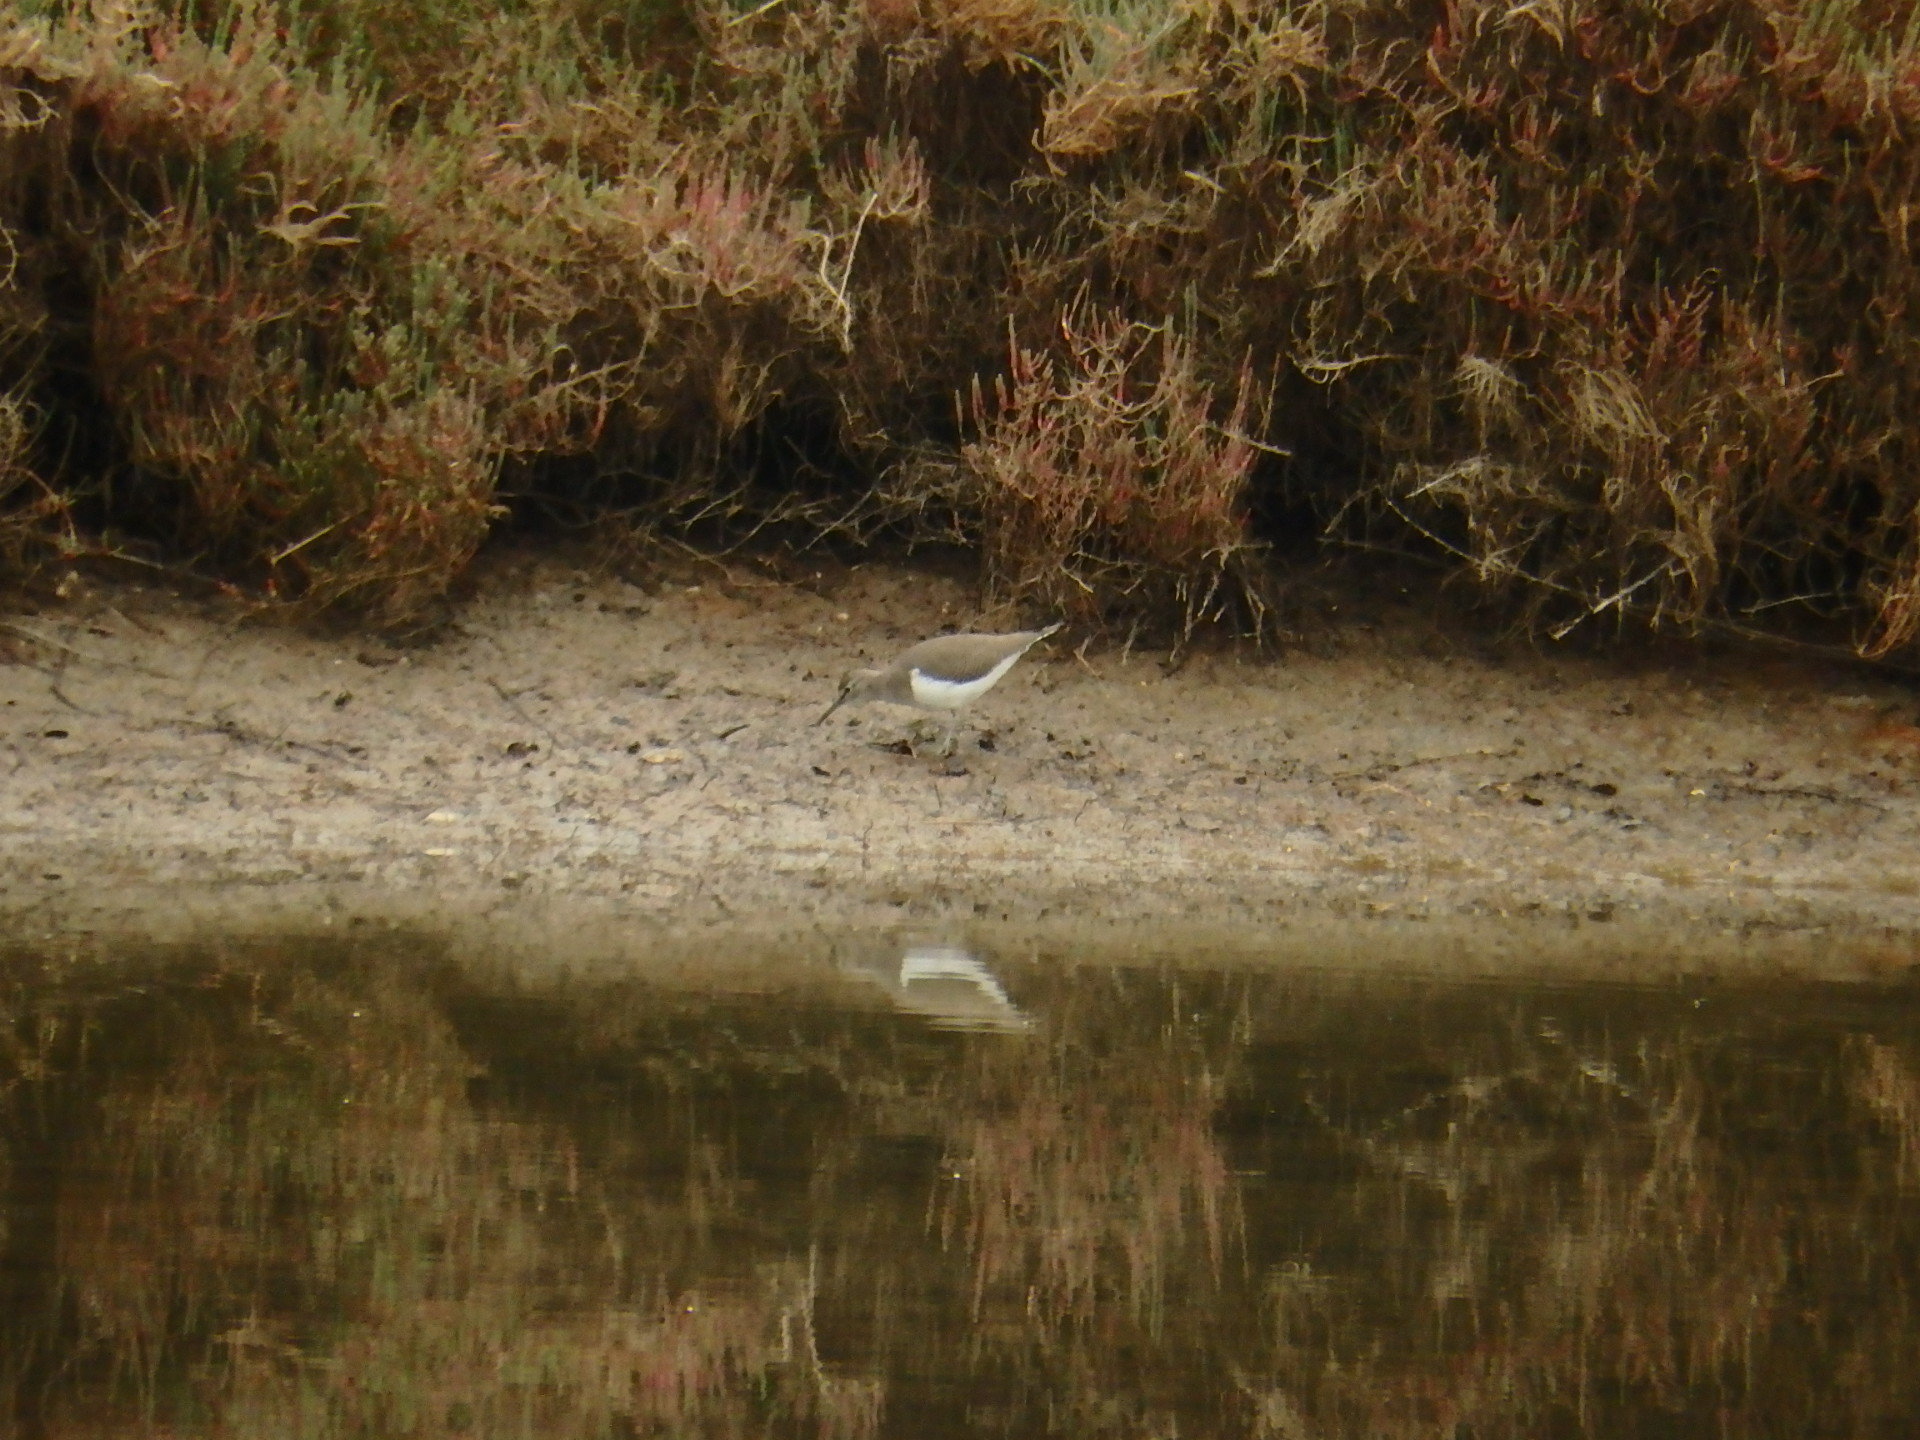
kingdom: Animalia
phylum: Chordata
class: Aves
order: Charadriiformes
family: Scolopacidae
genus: Actitis
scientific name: Actitis hypoleucos
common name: Common sandpiper
